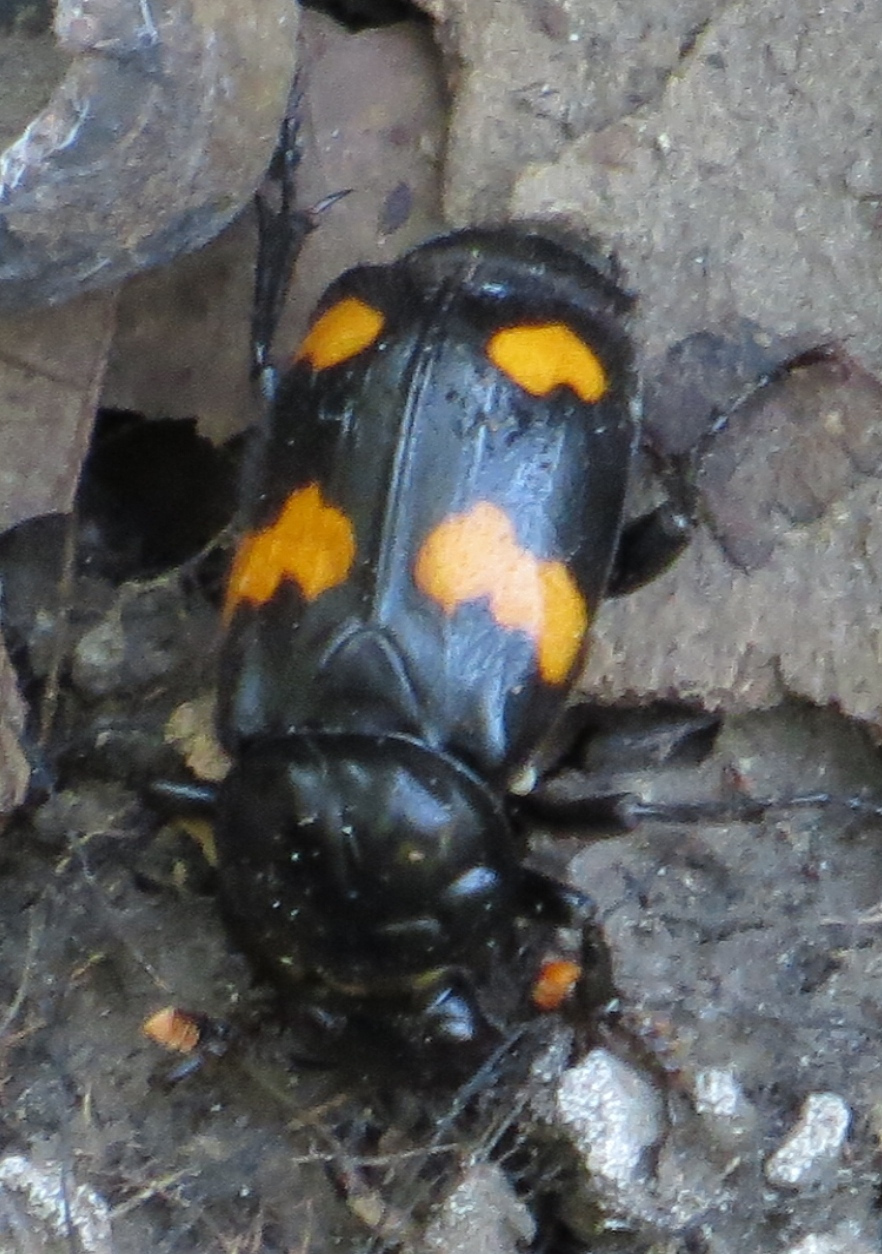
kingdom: Animalia
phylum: Arthropoda
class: Insecta
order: Coleoptera
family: Staphylinidae
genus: Nicrophorus
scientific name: Nicrophorus orbicollis
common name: Roundneck sexton beetle
